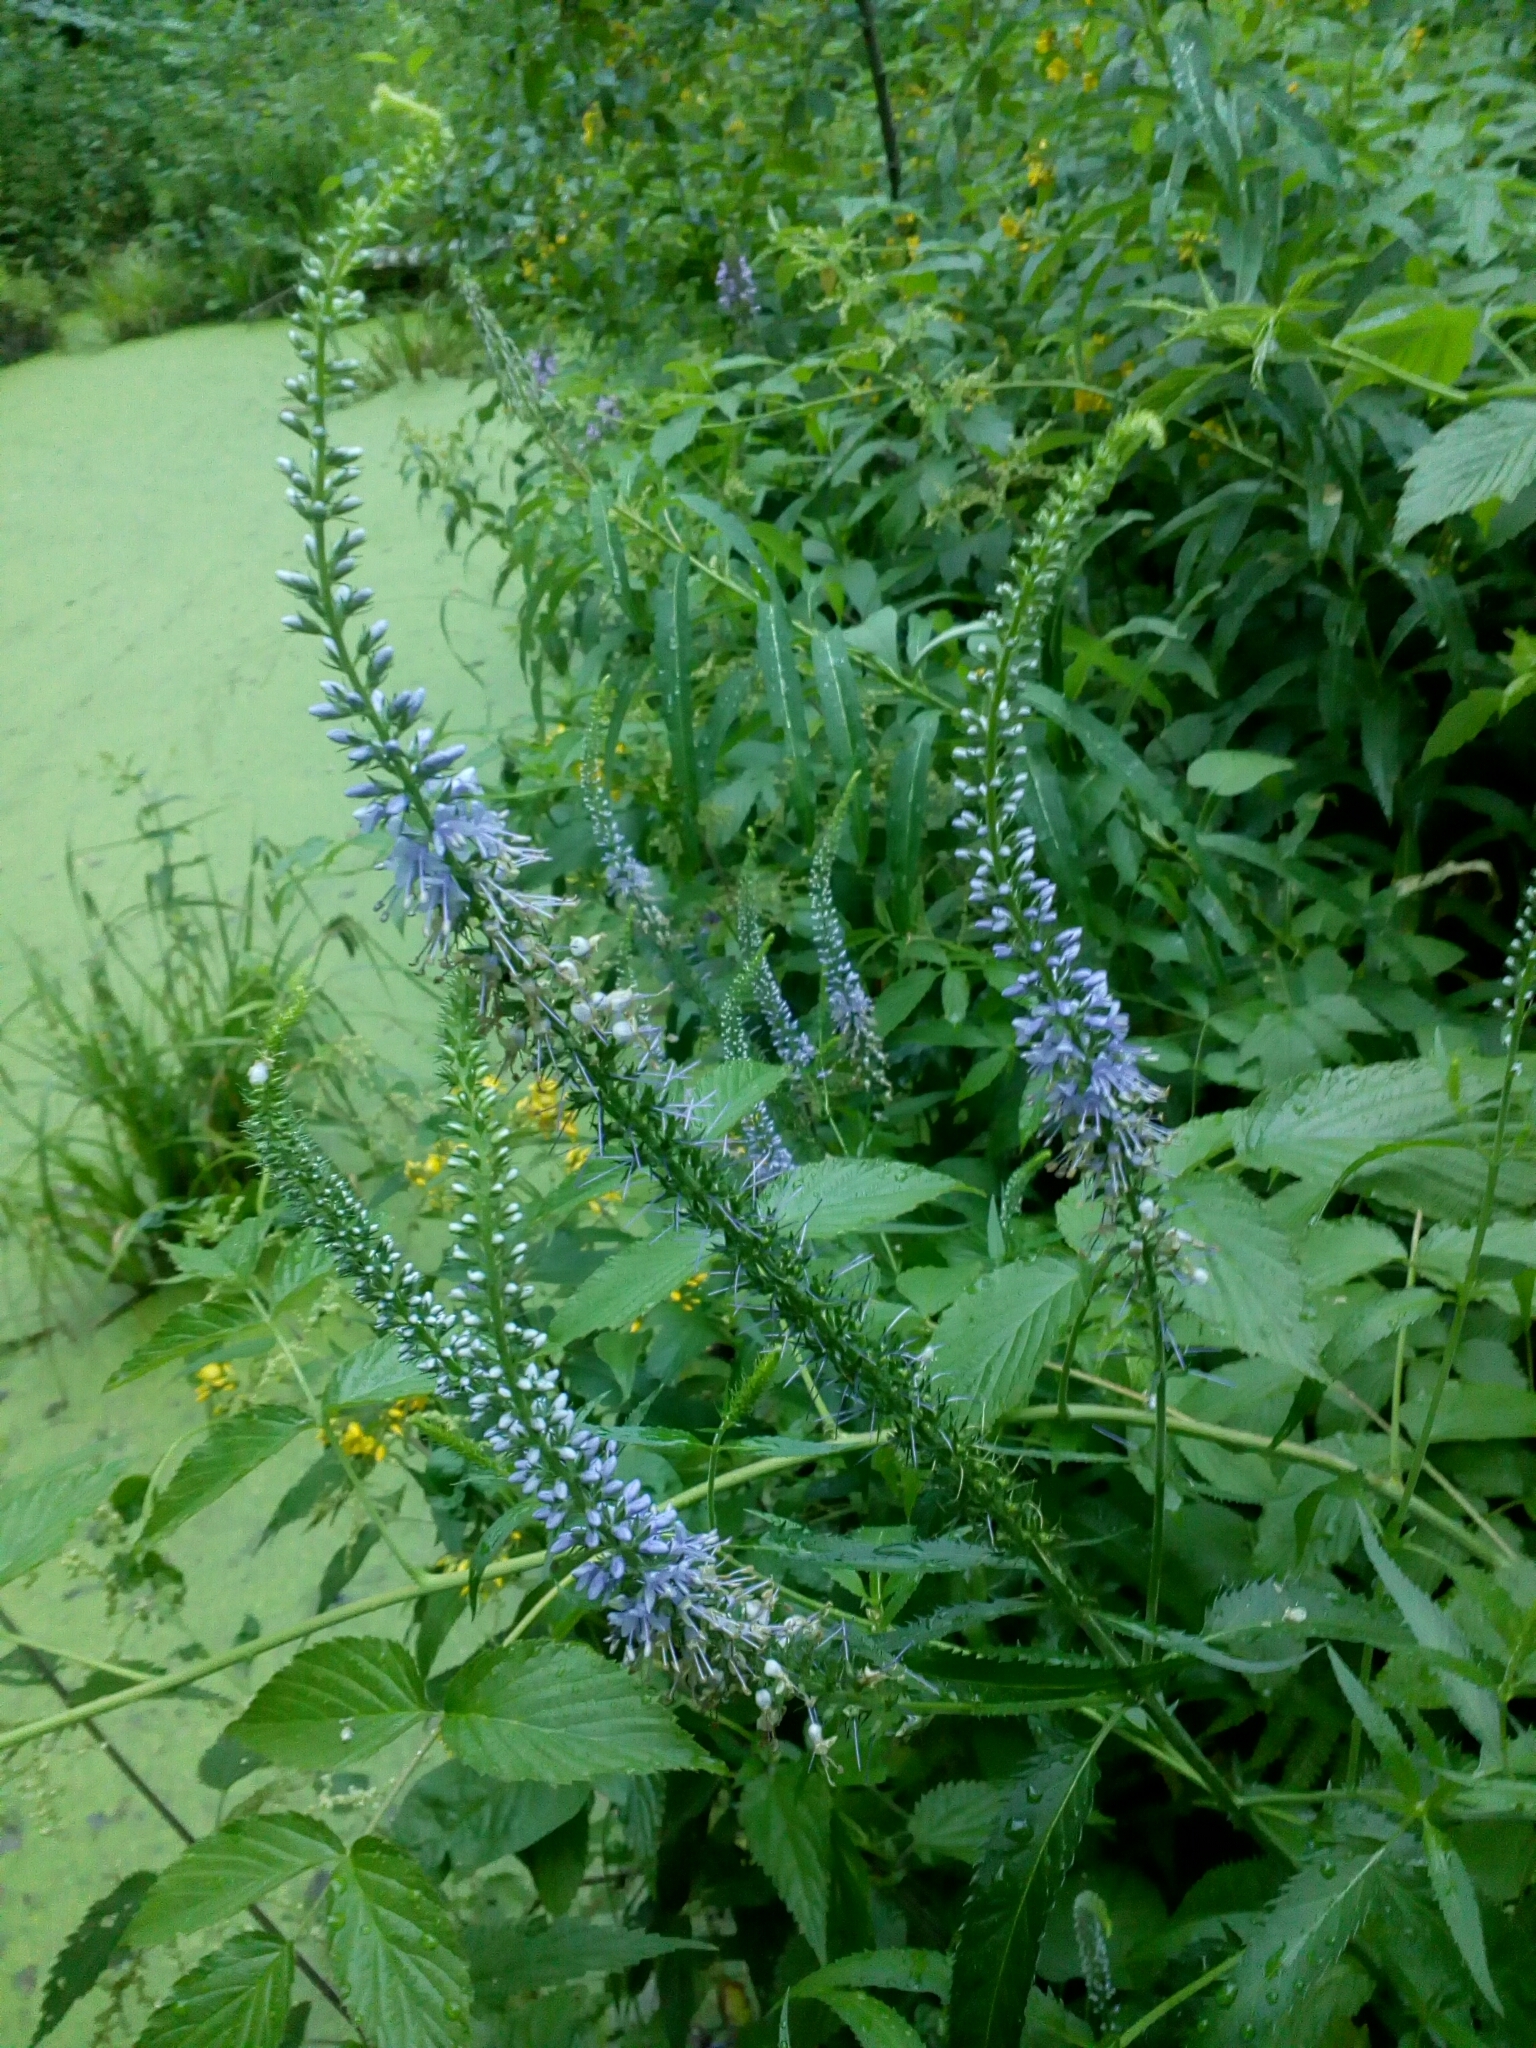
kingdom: Plantae
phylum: Tracheophyta
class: Magnoliopsida
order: Lamiales
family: Plantaginaceae
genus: Veronica
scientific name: Veronica longifolia
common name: Garden speedwell
